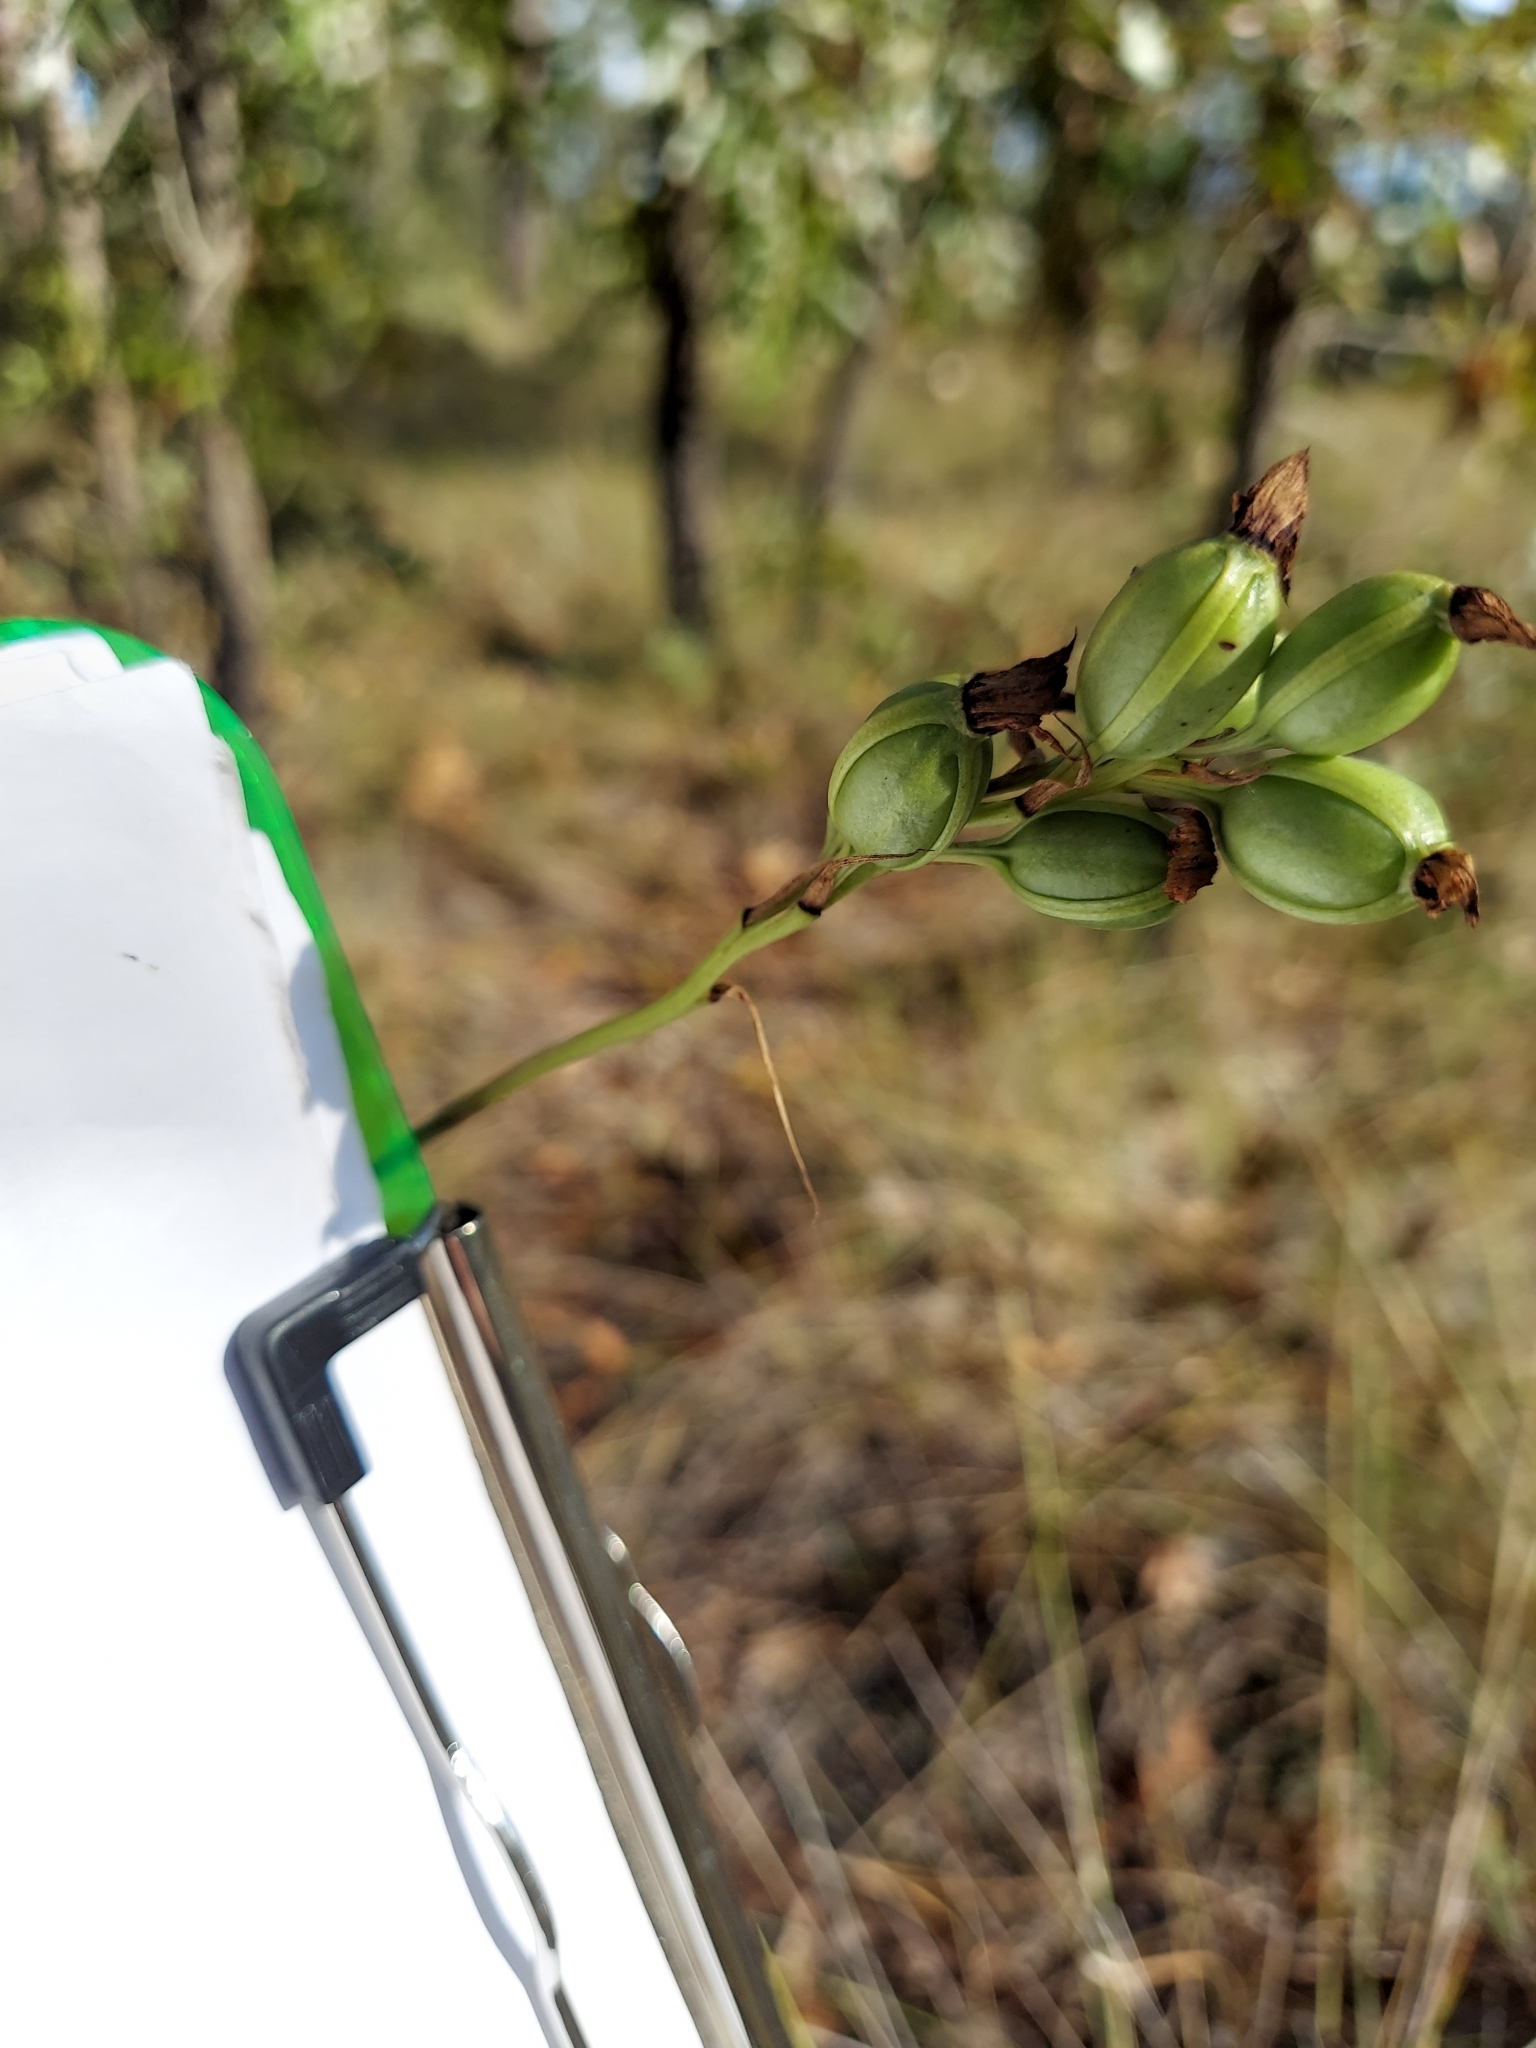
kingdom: Plantae
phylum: Tracheophyta
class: Liliopsida
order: Asparagales
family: Orchidaceae
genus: Eulophia
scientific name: Eulophia ecristata
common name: Giant orchid
